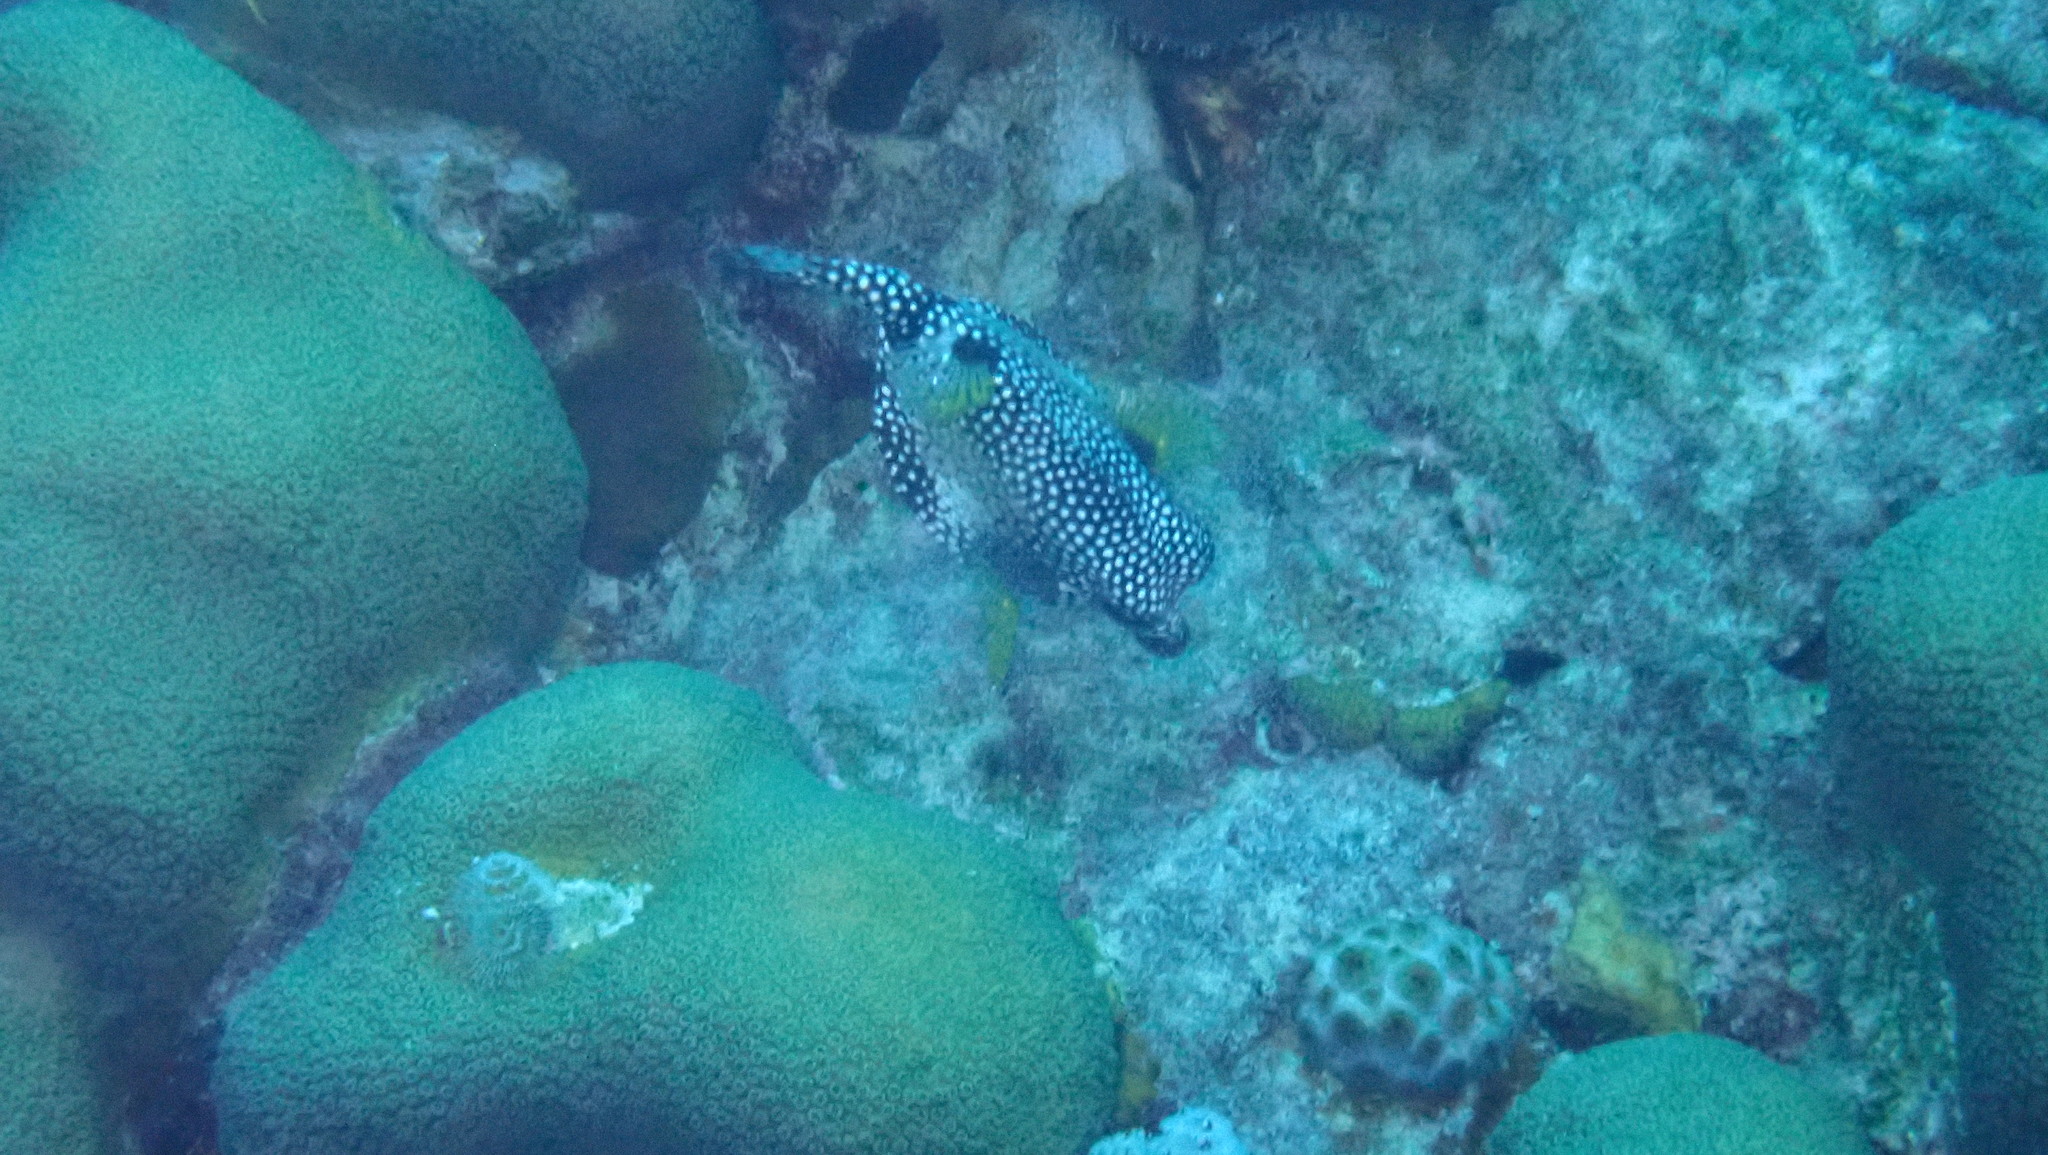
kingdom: Animalia
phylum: Chordata
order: Tetraodontiformes
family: Ostraciidae
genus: Lactophrys
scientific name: Lactophrys triqueter
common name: Smooth trunkfish
